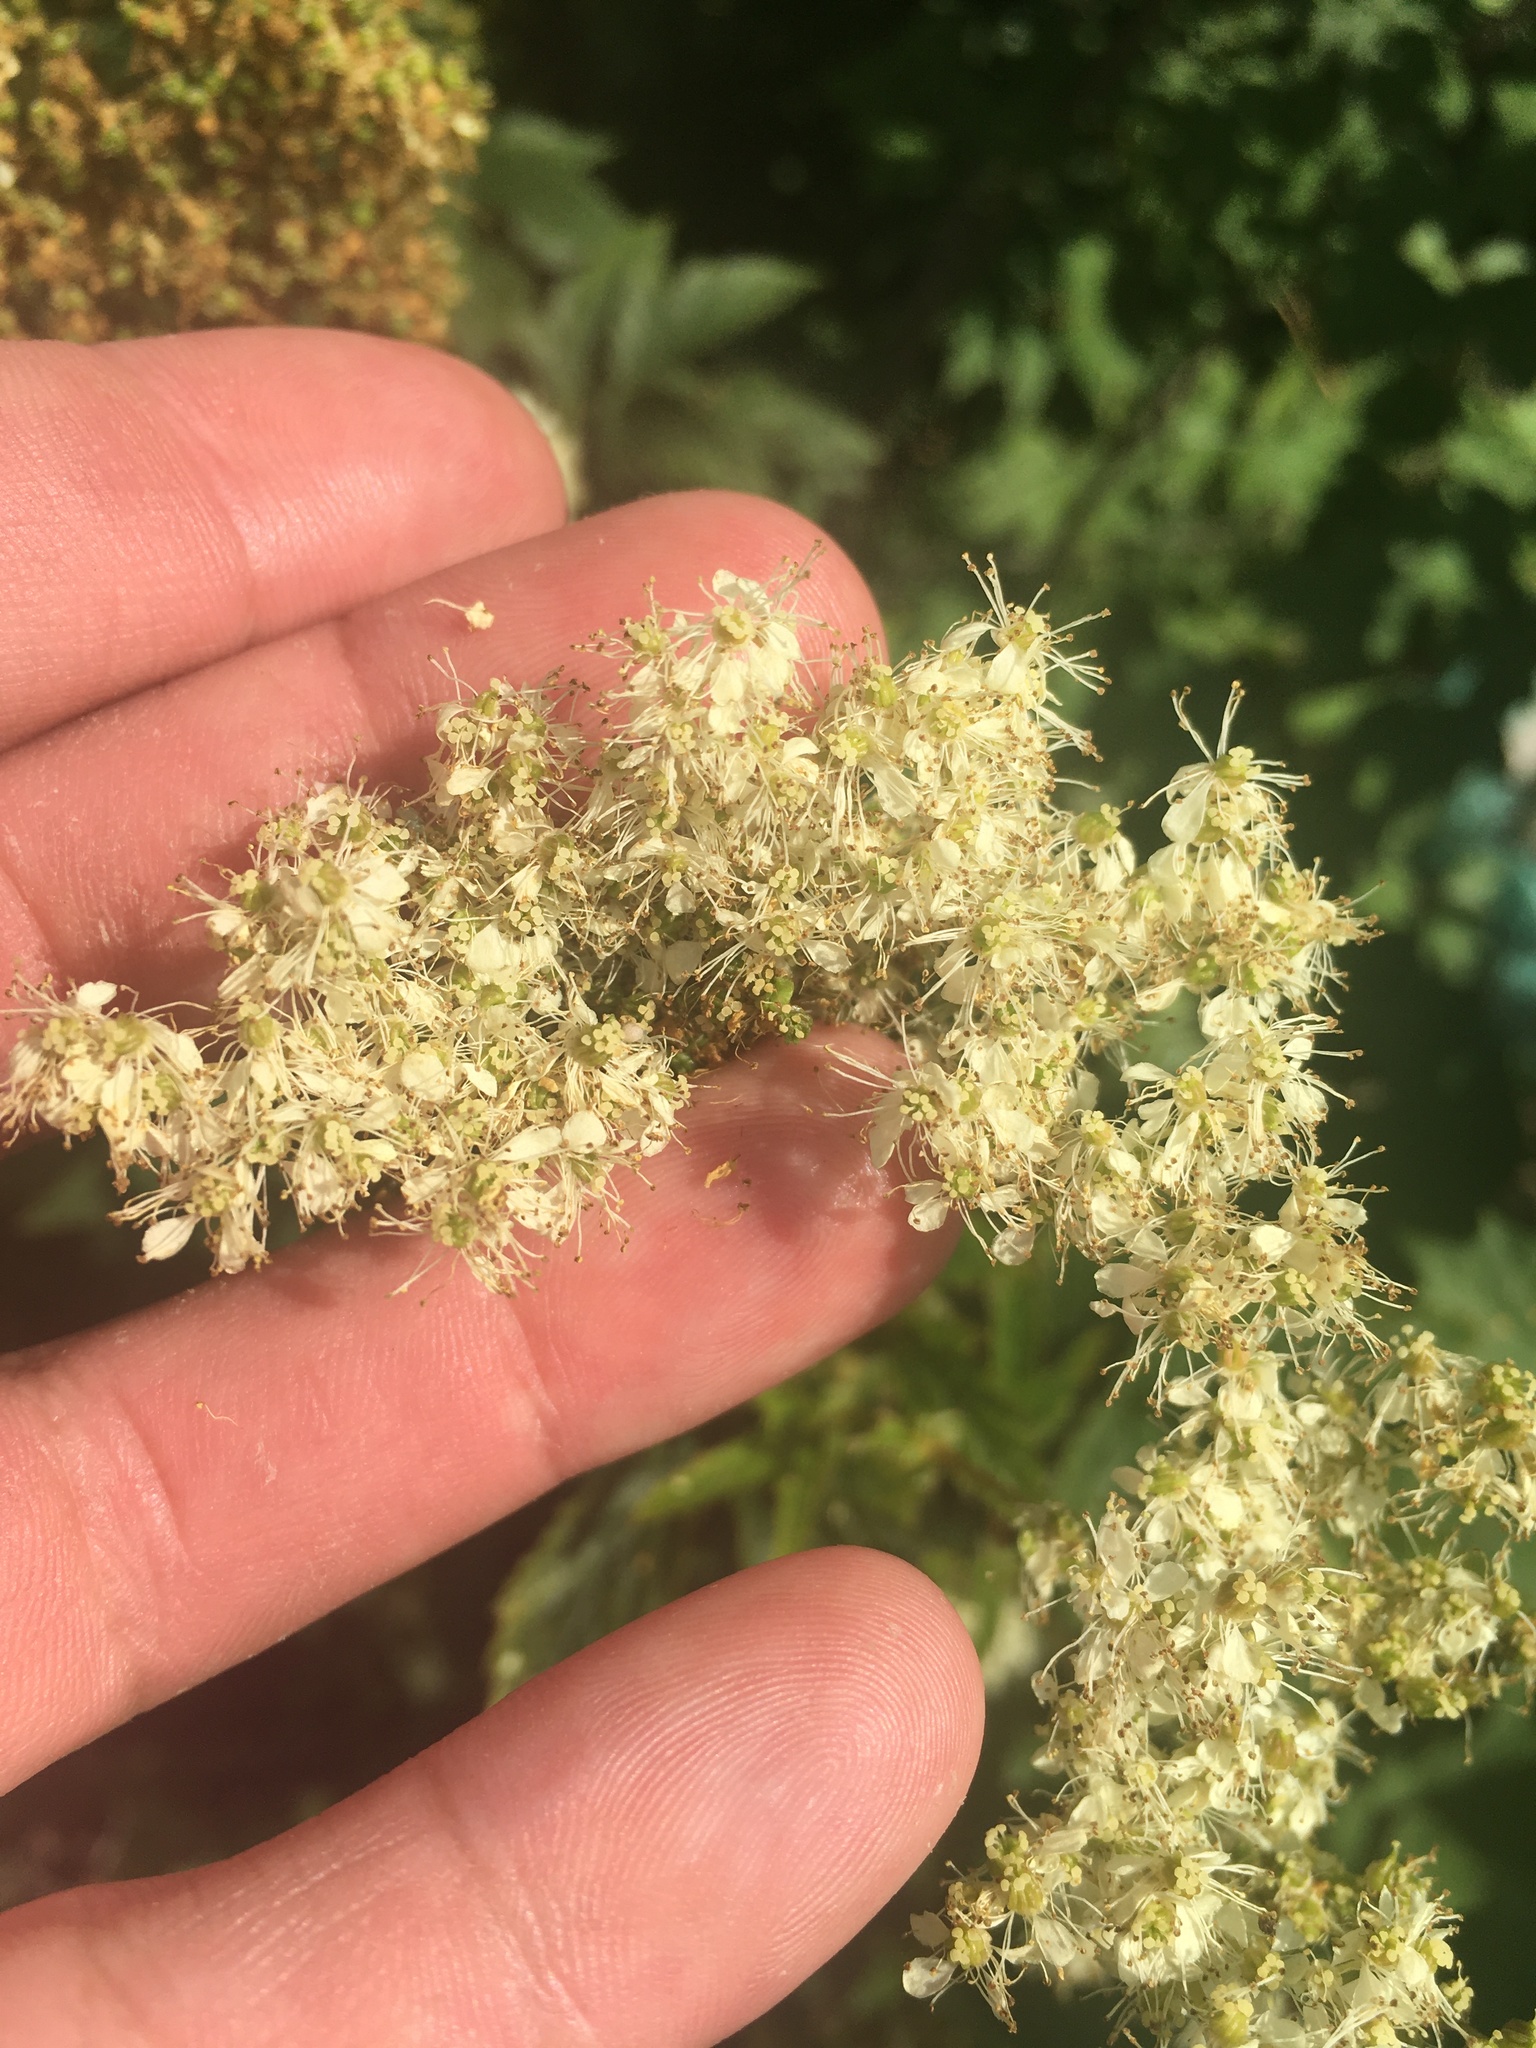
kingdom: Plantae
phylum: Tracheophyta
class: Magnoliopsida
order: Rosales
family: Rosaceae
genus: Filipendula
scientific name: Filipendula ulmaria
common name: Meadowsweet
